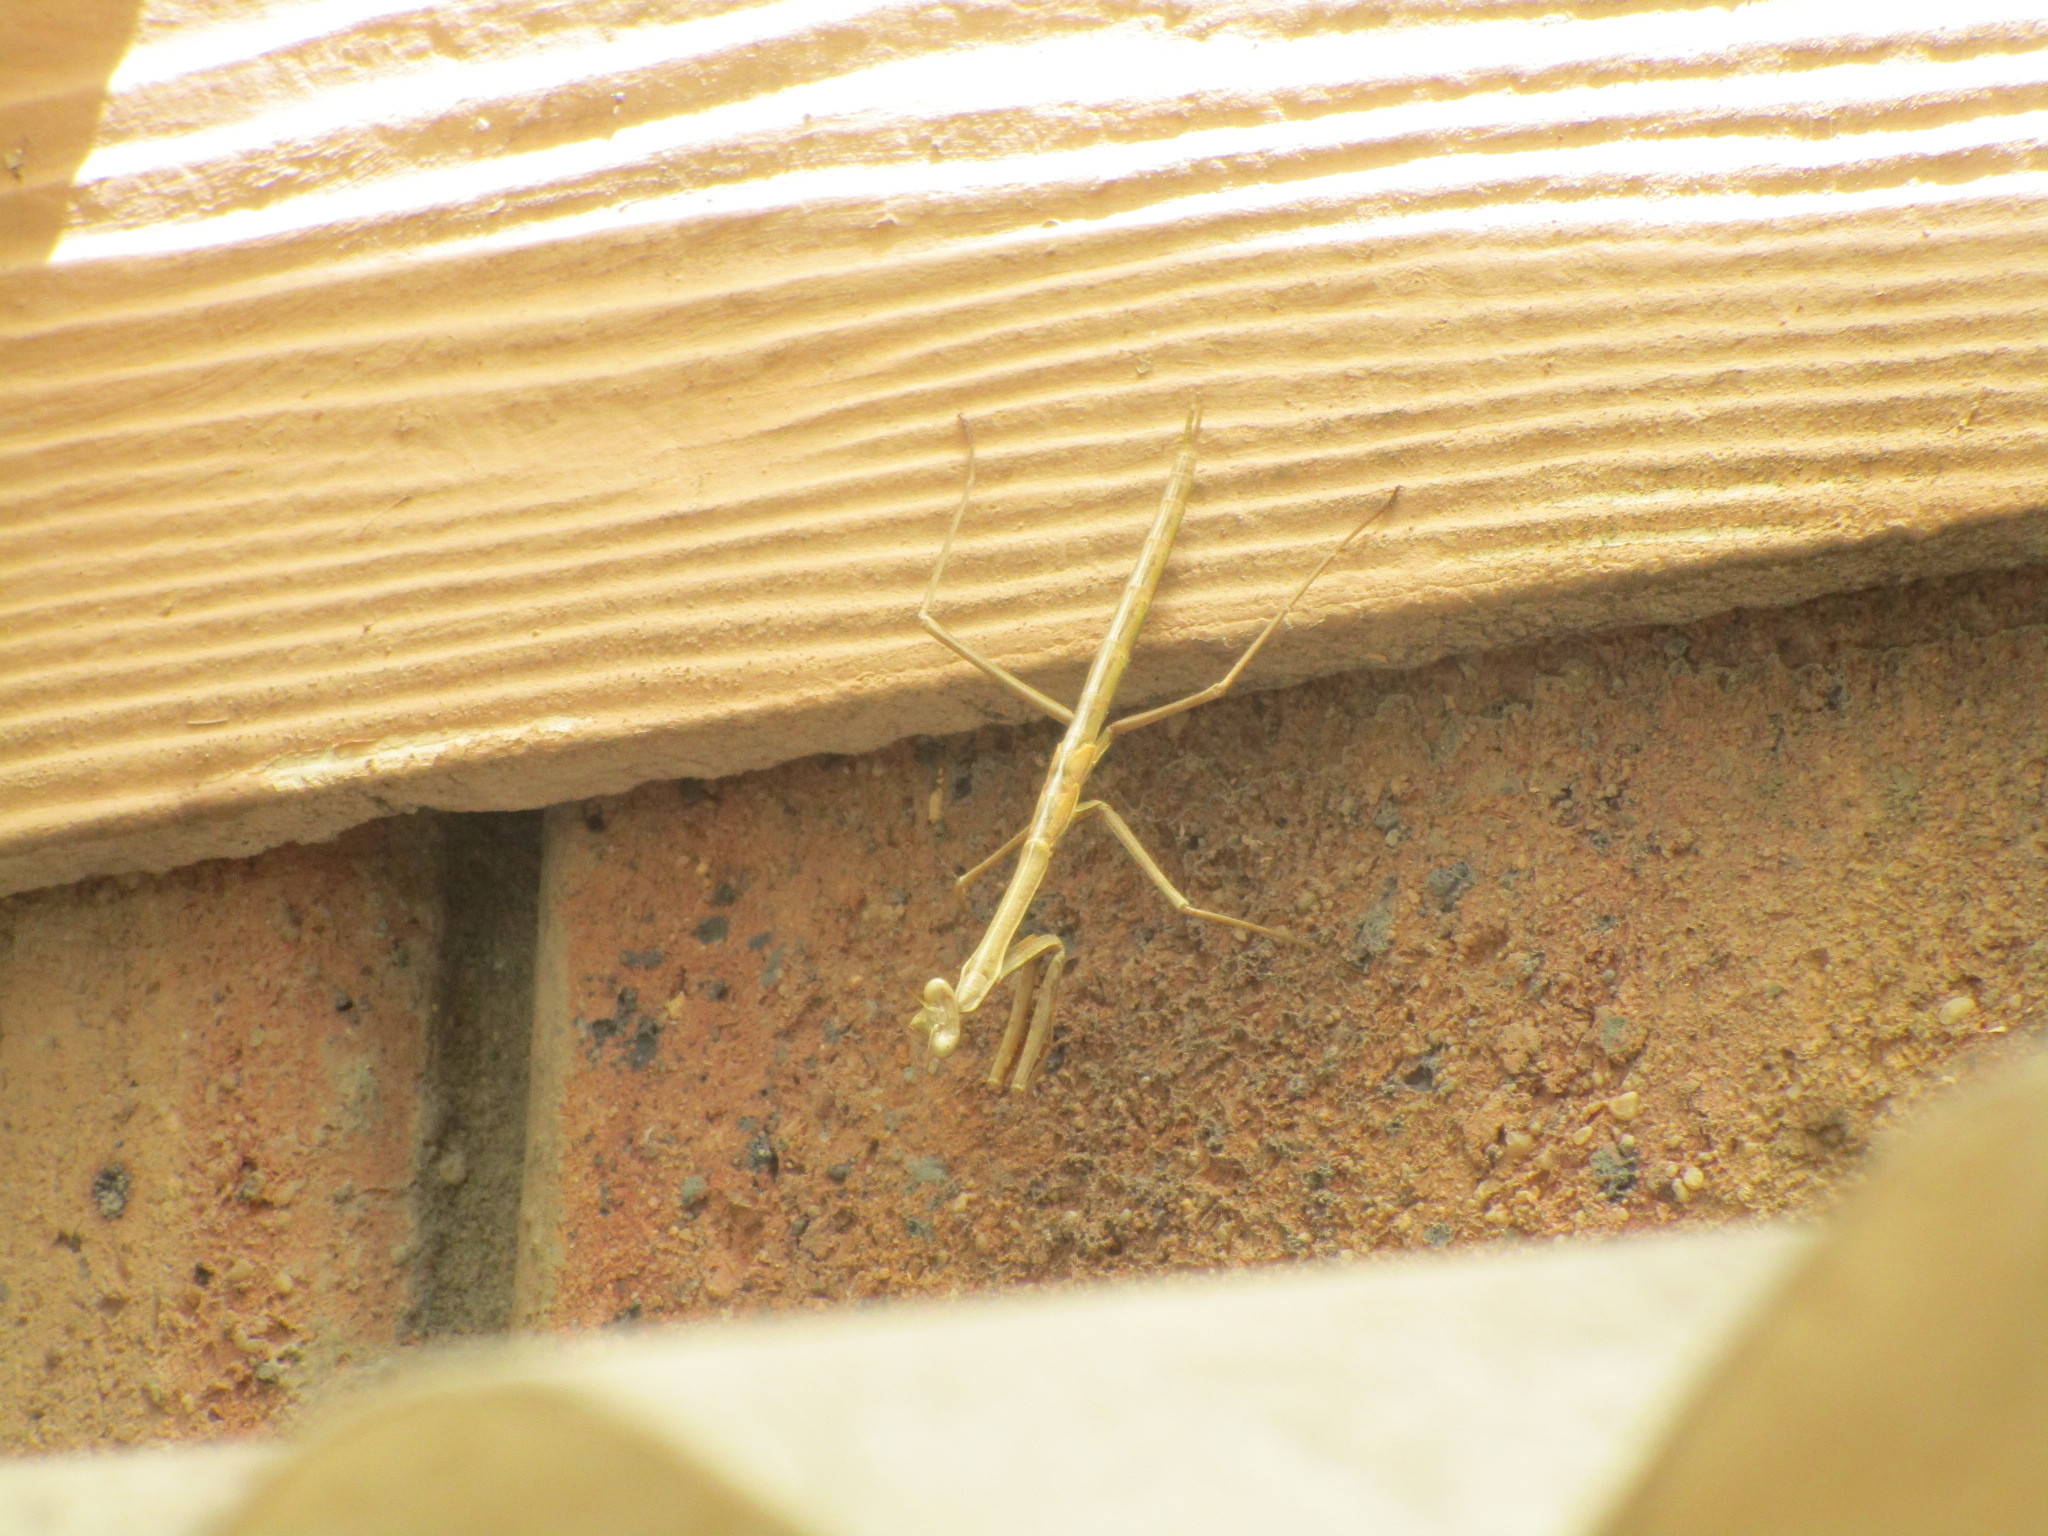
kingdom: Animalia
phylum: Arthropoda
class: Insecta
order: Mantodea
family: Mantidae
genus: Archimantis
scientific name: Archimantis sobrina
